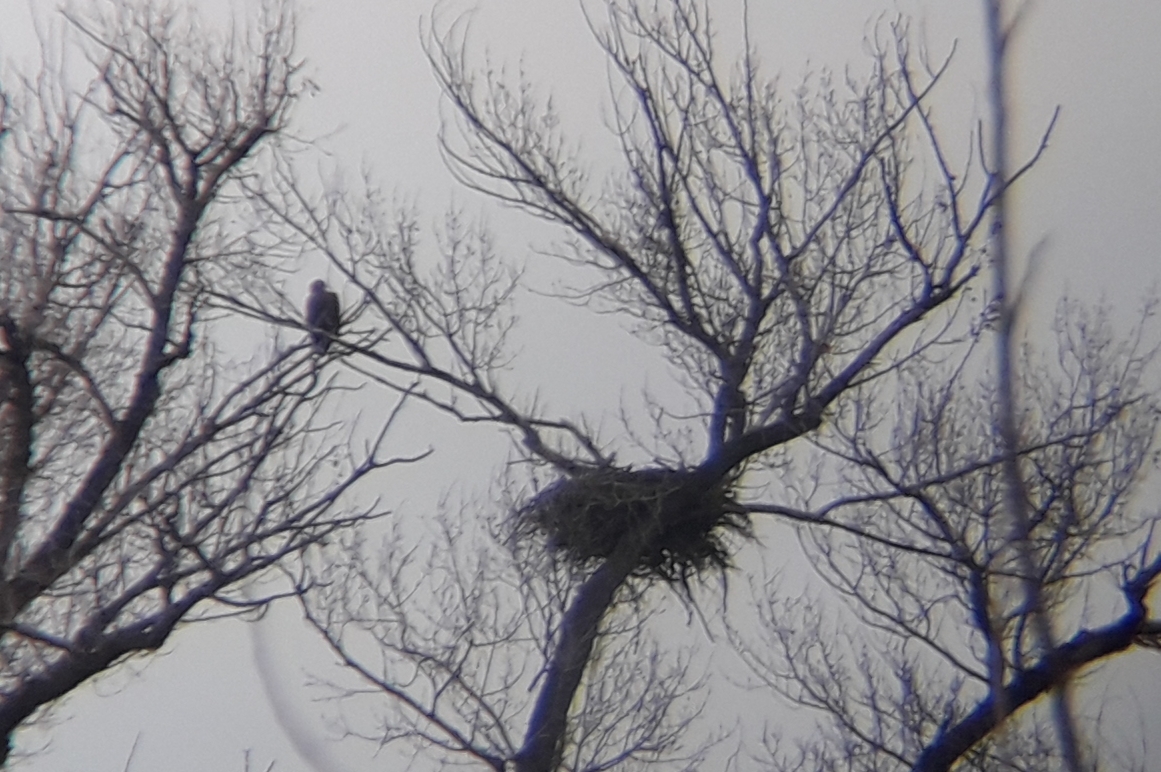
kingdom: Animalia
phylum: Chordata
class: Aves
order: Accipitriformes
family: Accipitridae
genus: Haliaeetus
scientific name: Haliaeetus albicilla
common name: White-tailed eagle
